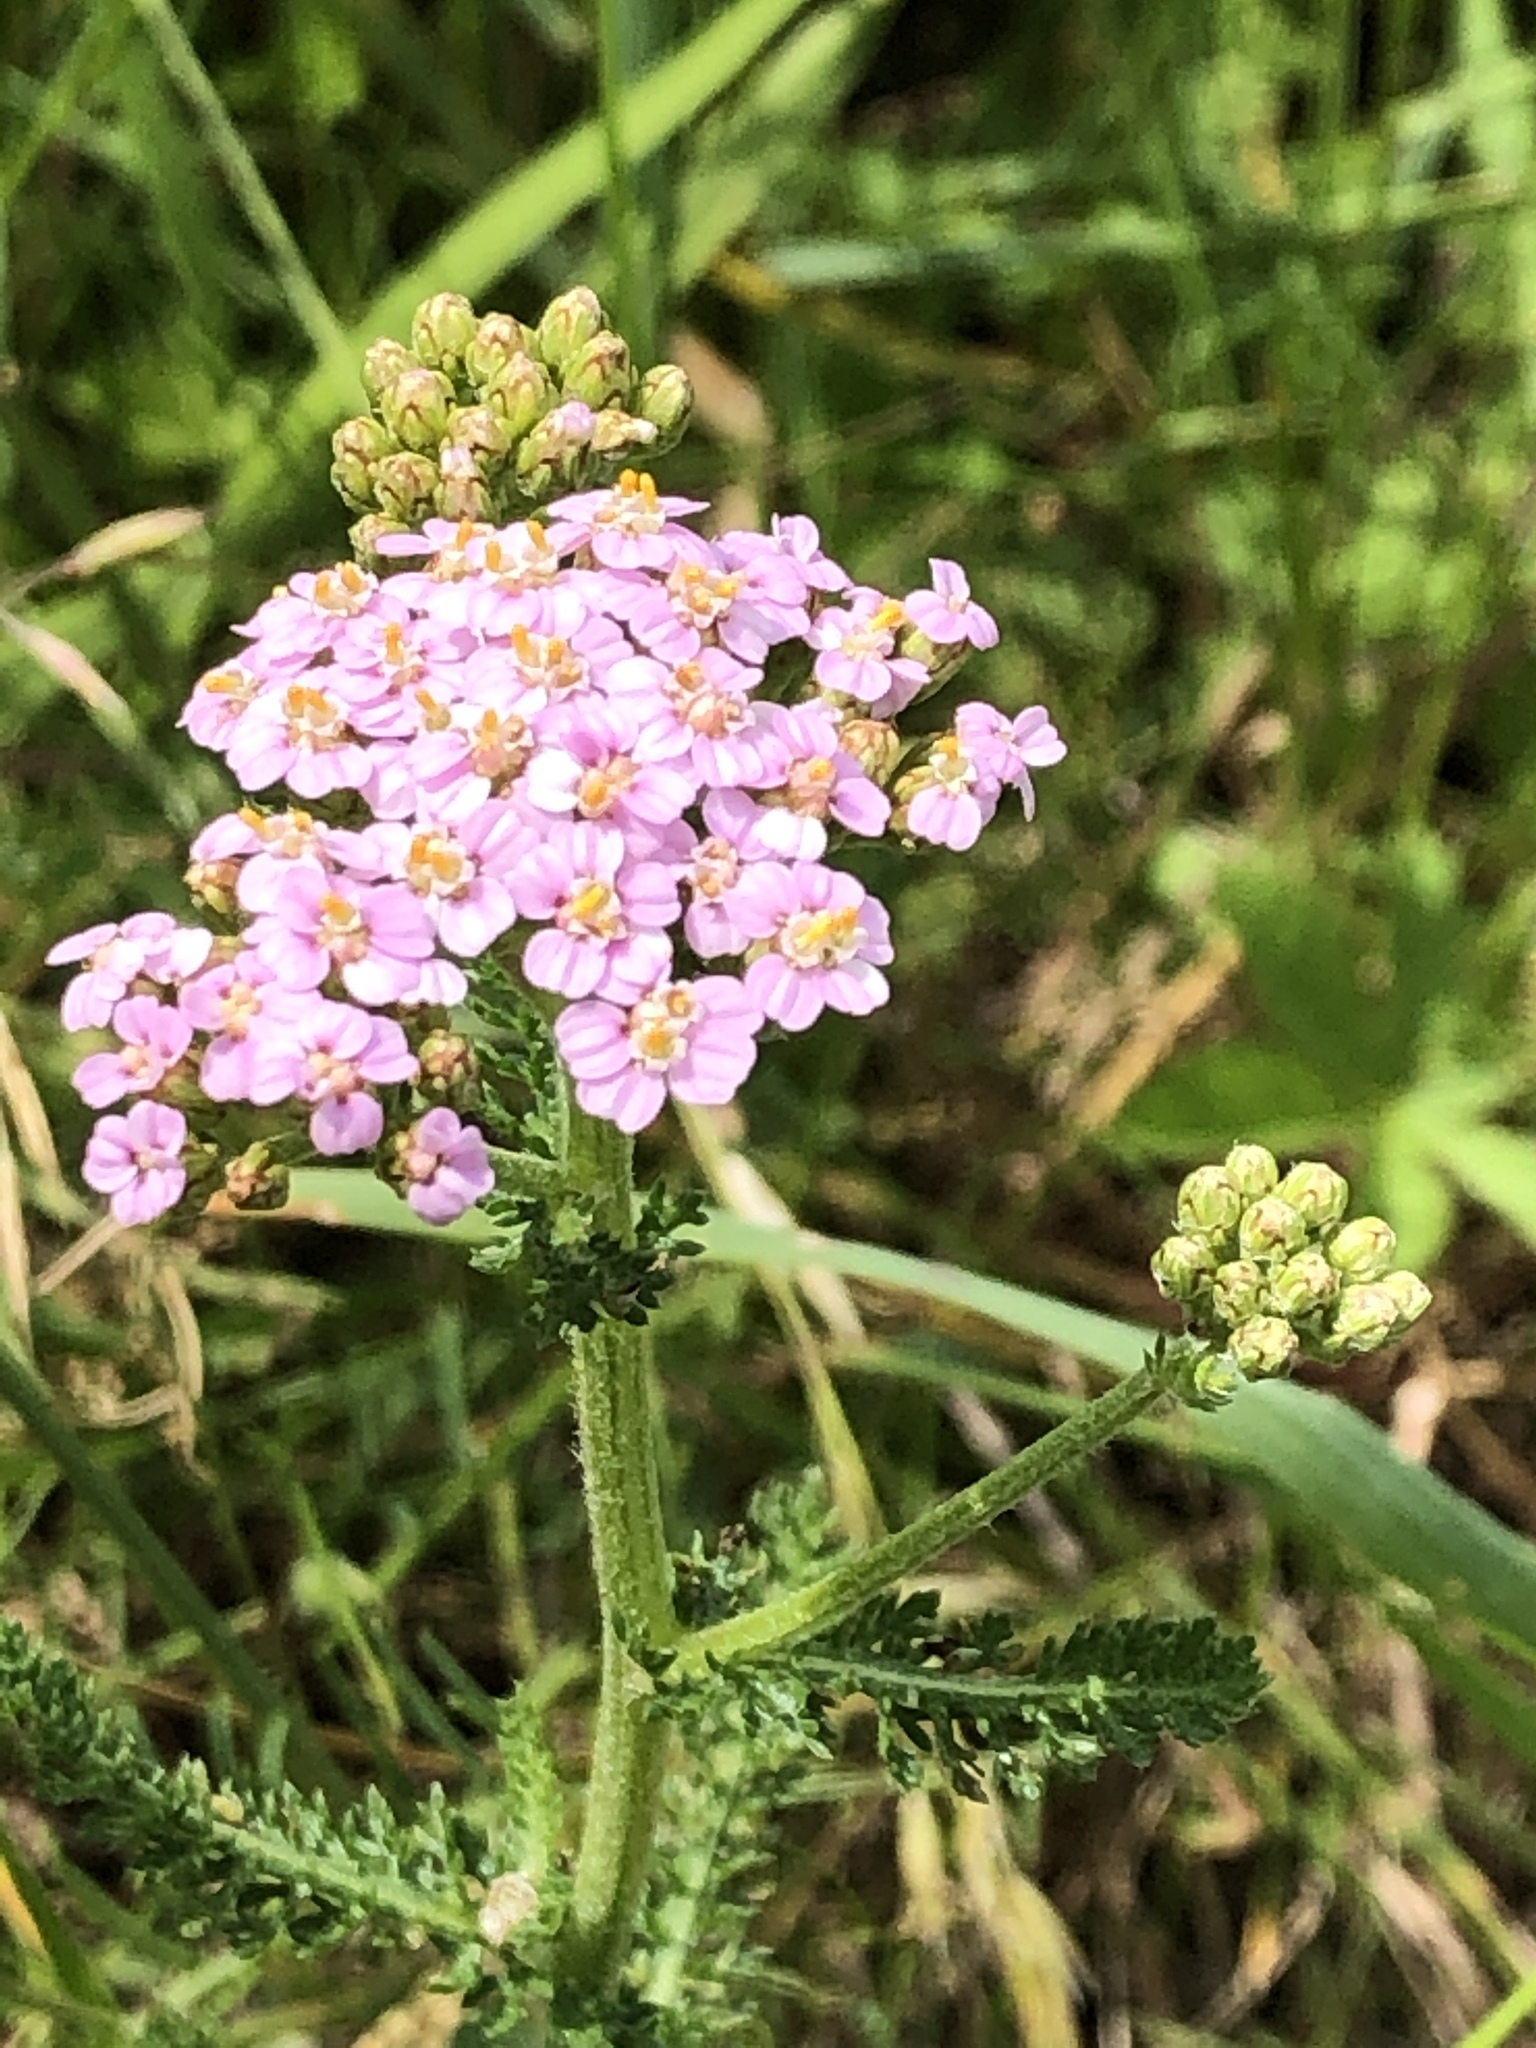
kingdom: Plantae
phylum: Tracheophyta
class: Magnoliopsida
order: Asterales
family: Asteraceae
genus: Achillea
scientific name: Achillea millefolium
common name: Yarrow
